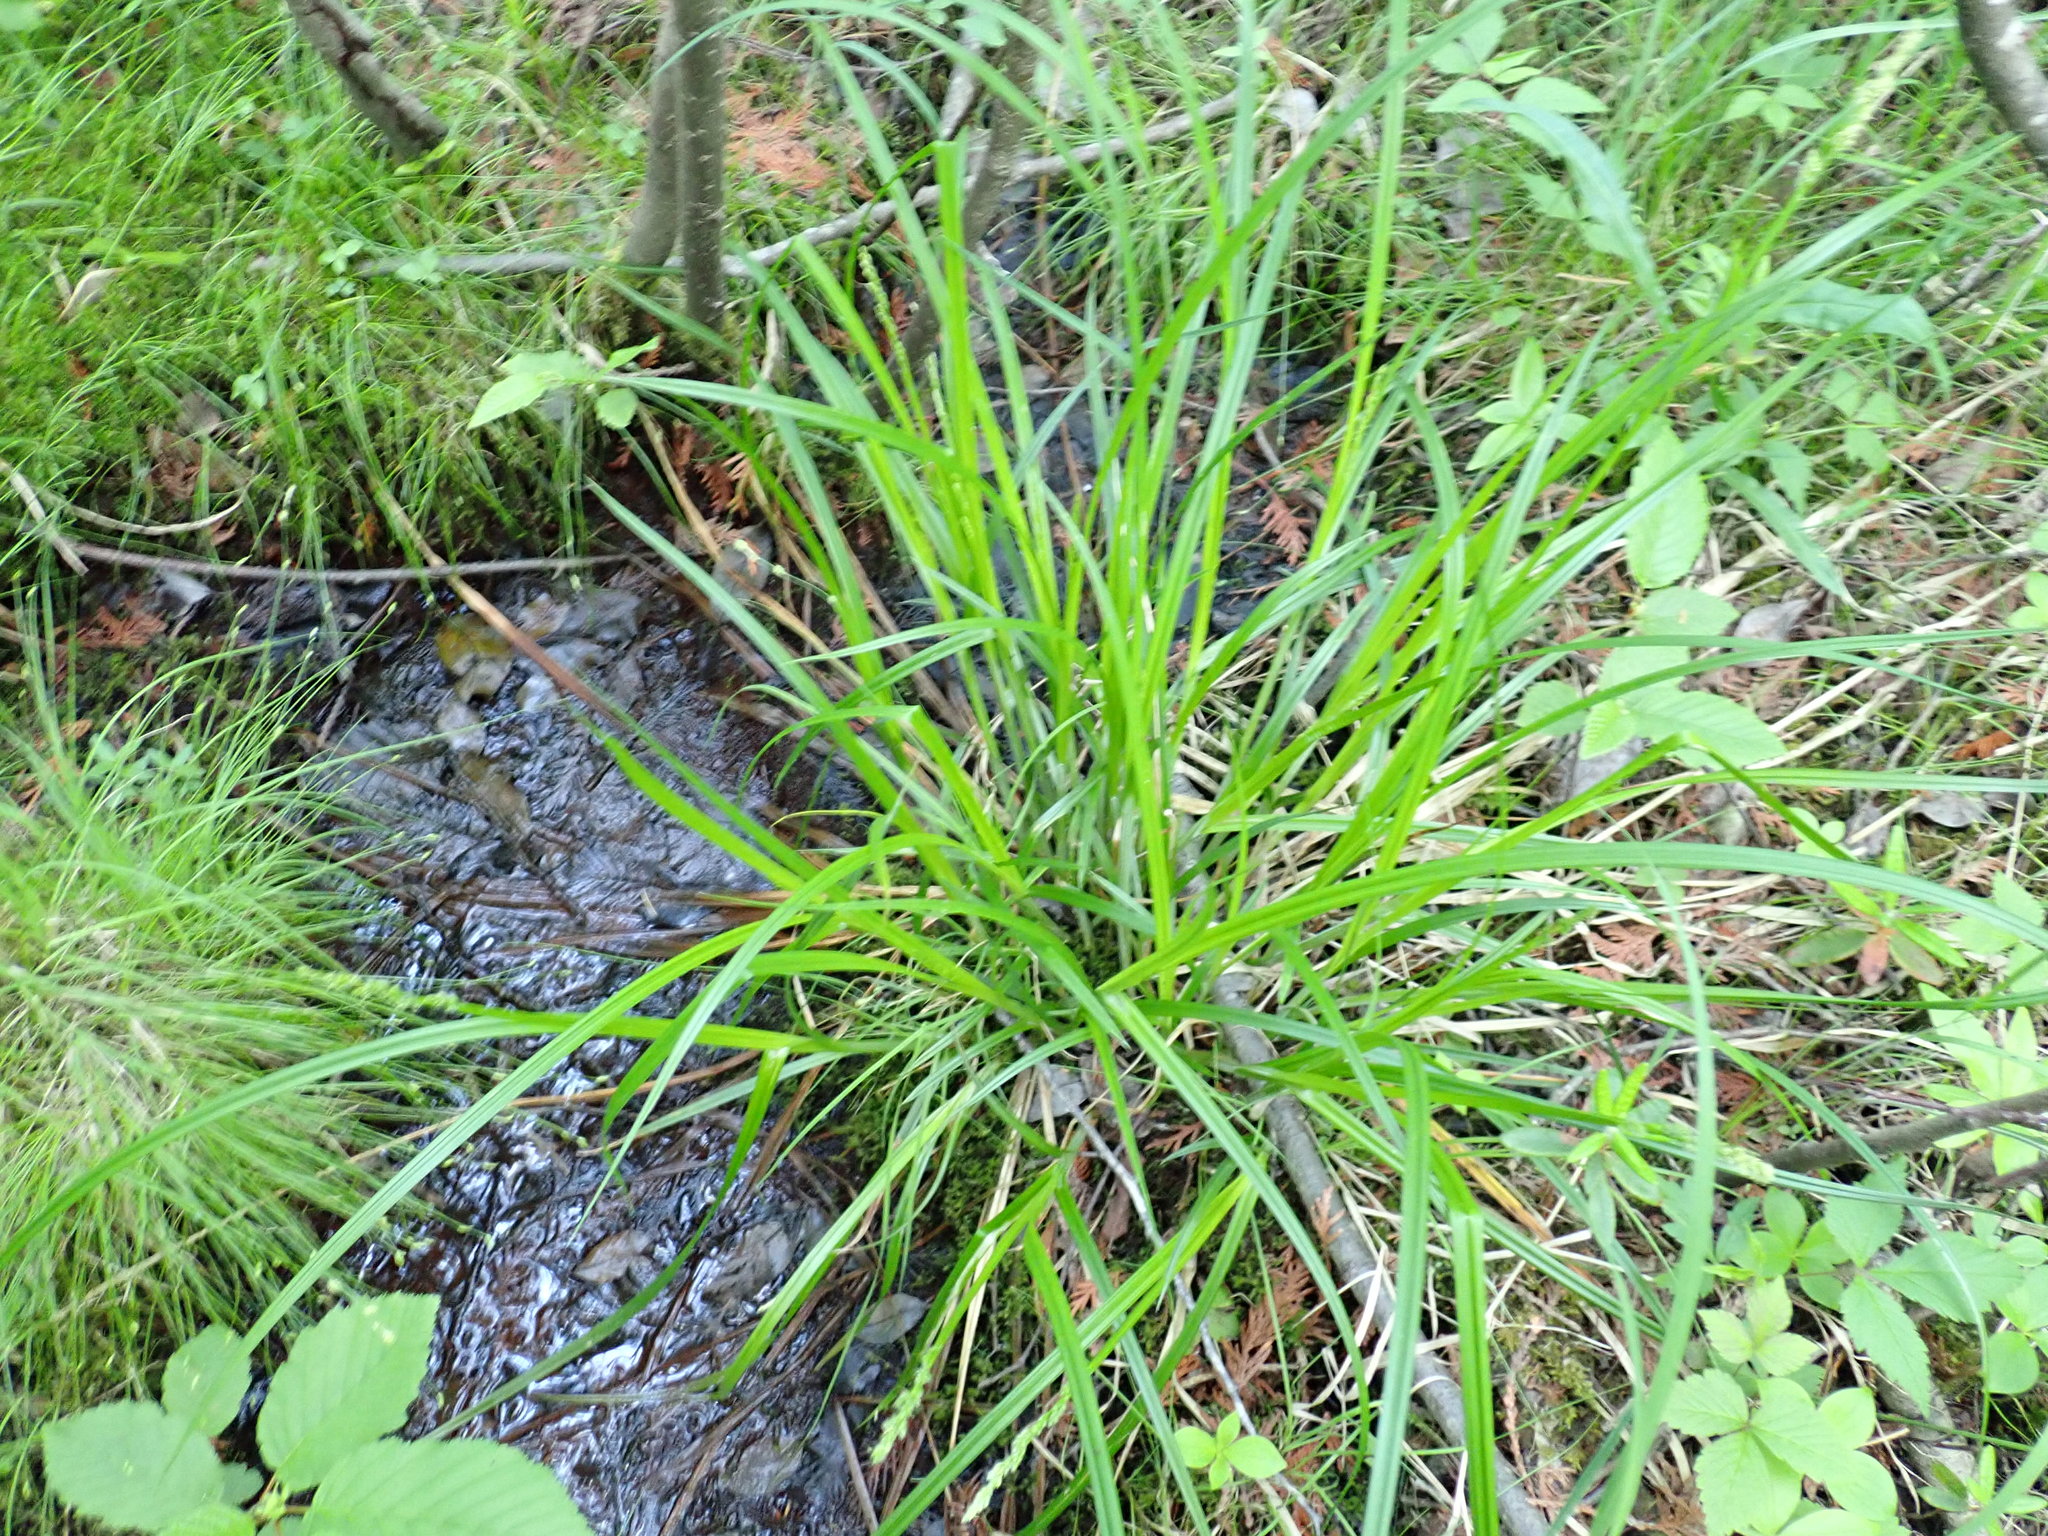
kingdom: Plantae
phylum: Tracheophyta
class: Liliopsida
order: Poales
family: Cyperaceae
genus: Carex
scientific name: Carex stipata
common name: Awl-fruited sedge
